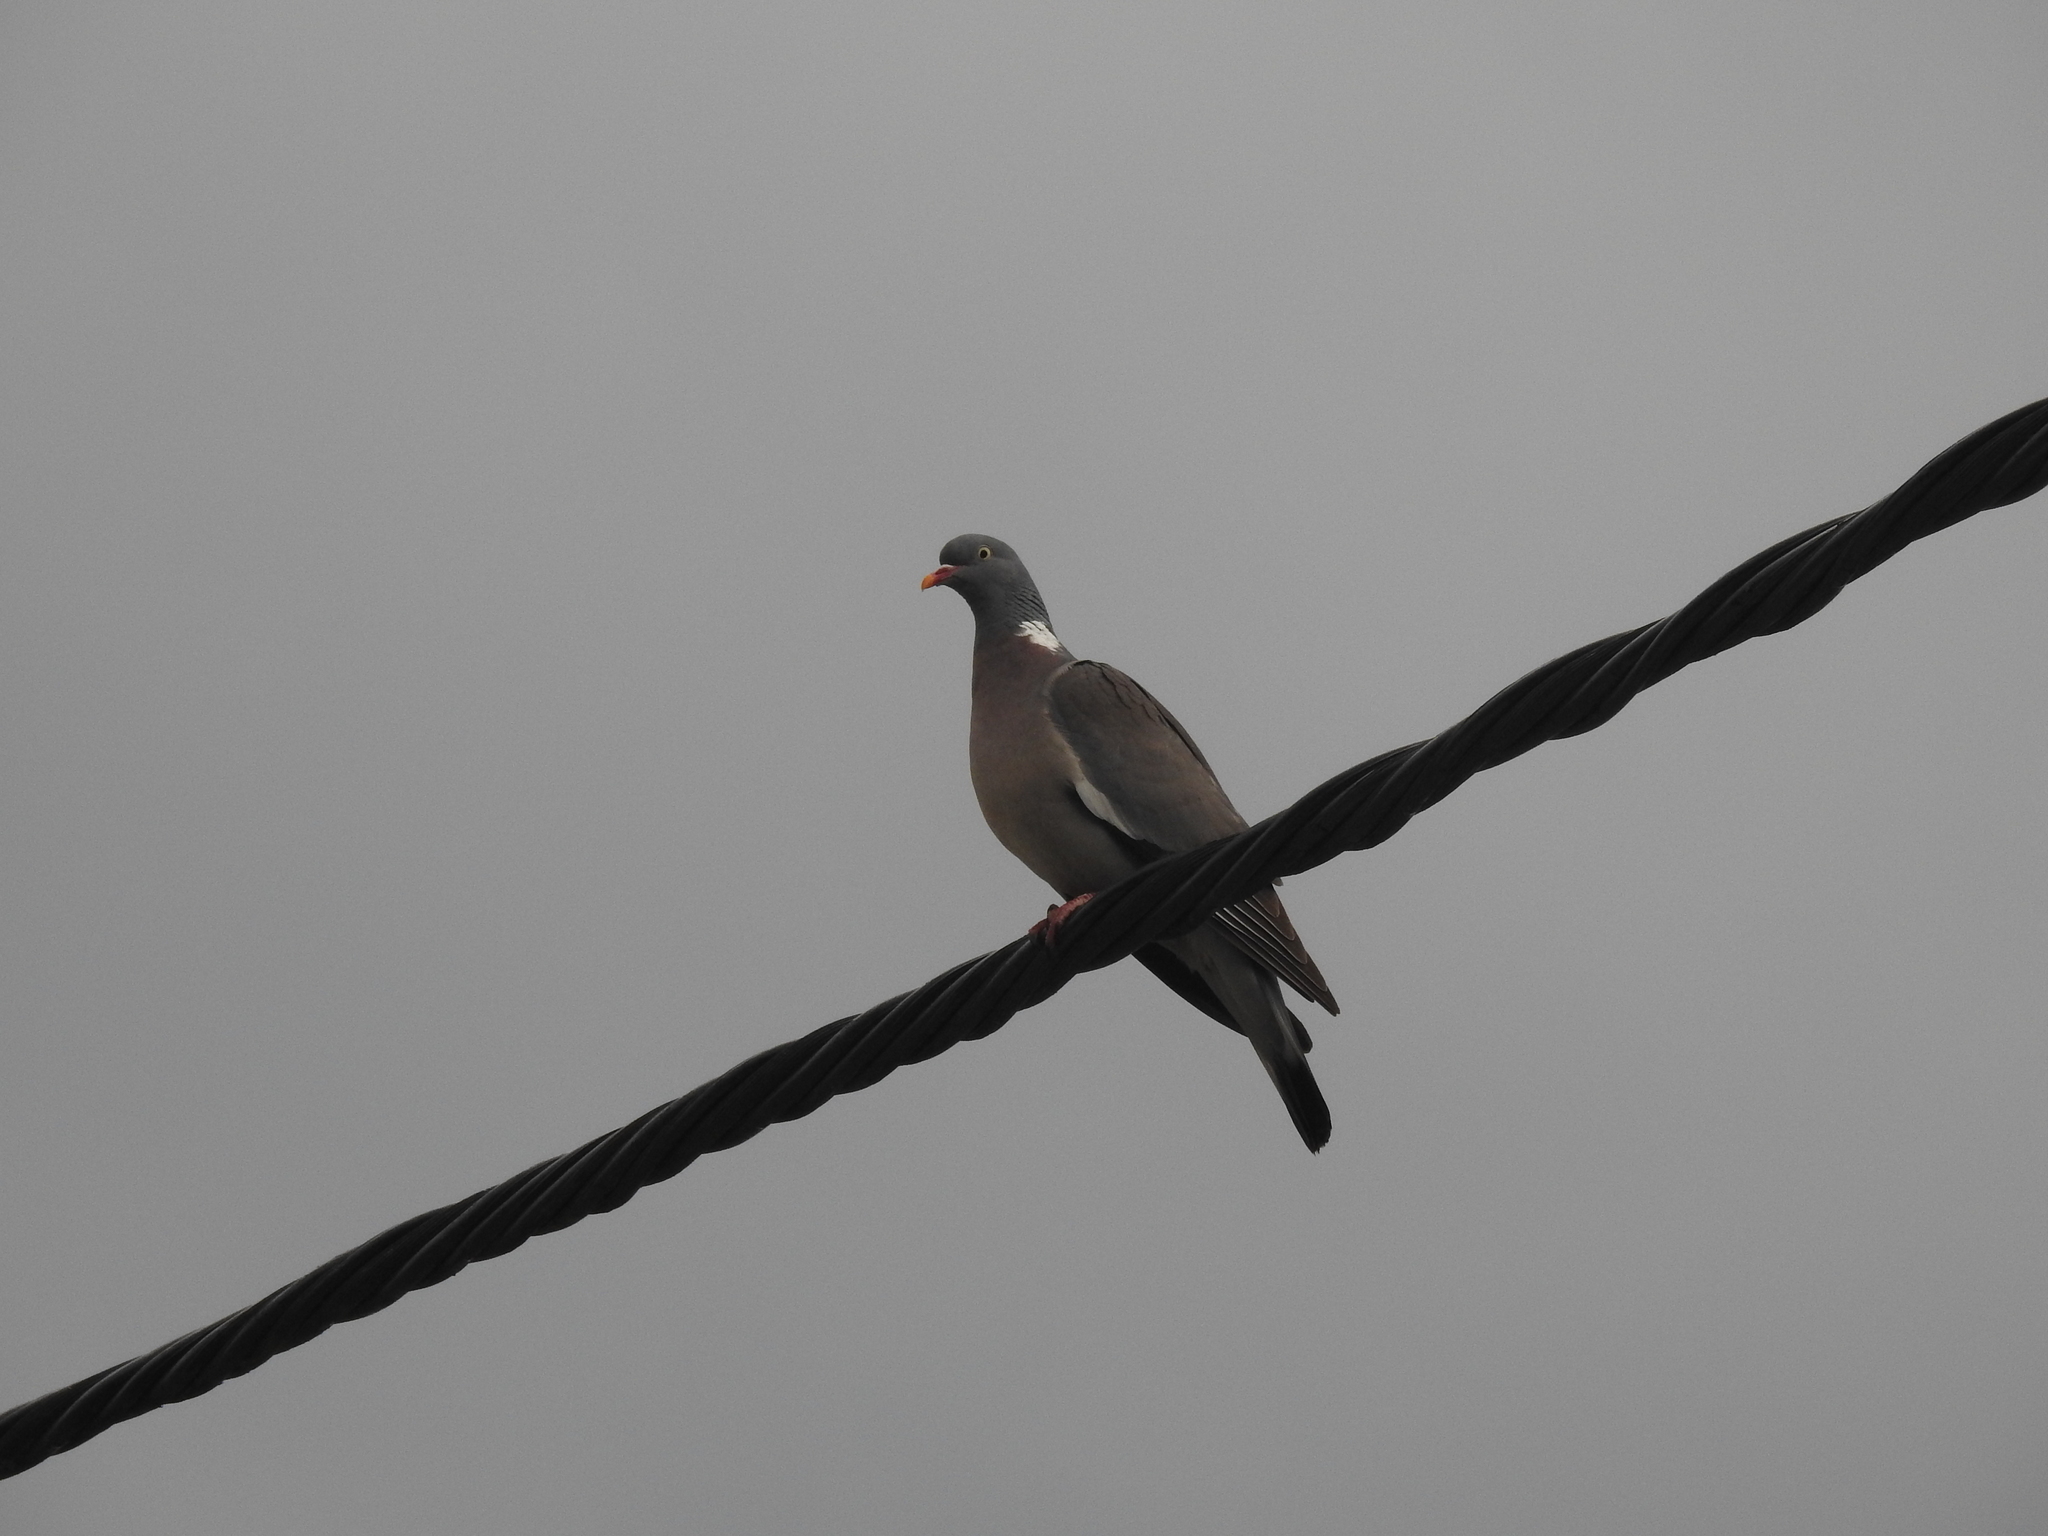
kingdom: Animalia
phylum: Chordata
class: Aves
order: Columbiformes
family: Columbidae
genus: Columba
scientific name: Columba palumbus
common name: Common wood pigeon
